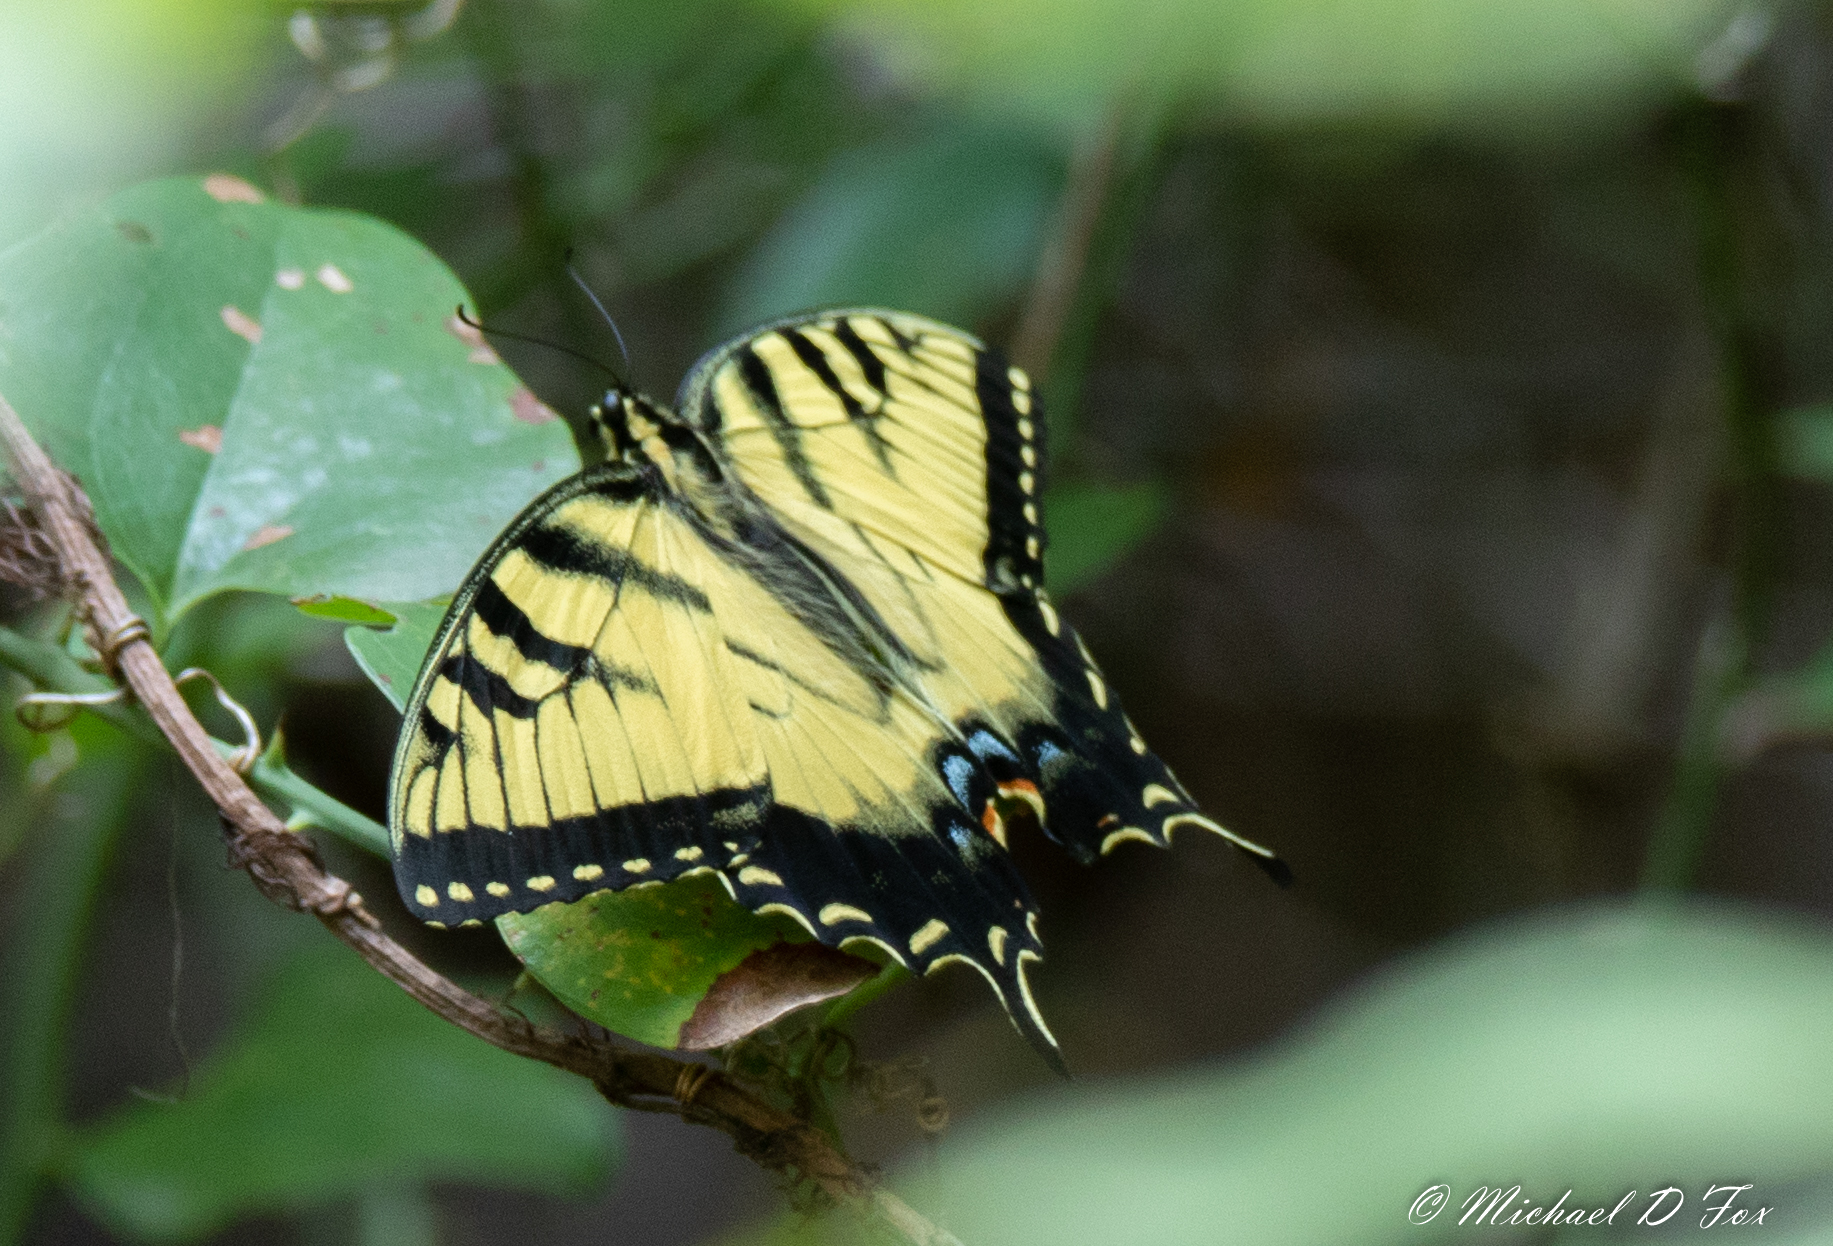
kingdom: Animalia
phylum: Arthropoda
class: Insecta
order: Lepidoptera
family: Papilionidae
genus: Papilio
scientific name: Papilio glaucus
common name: Tiger swallowtail
